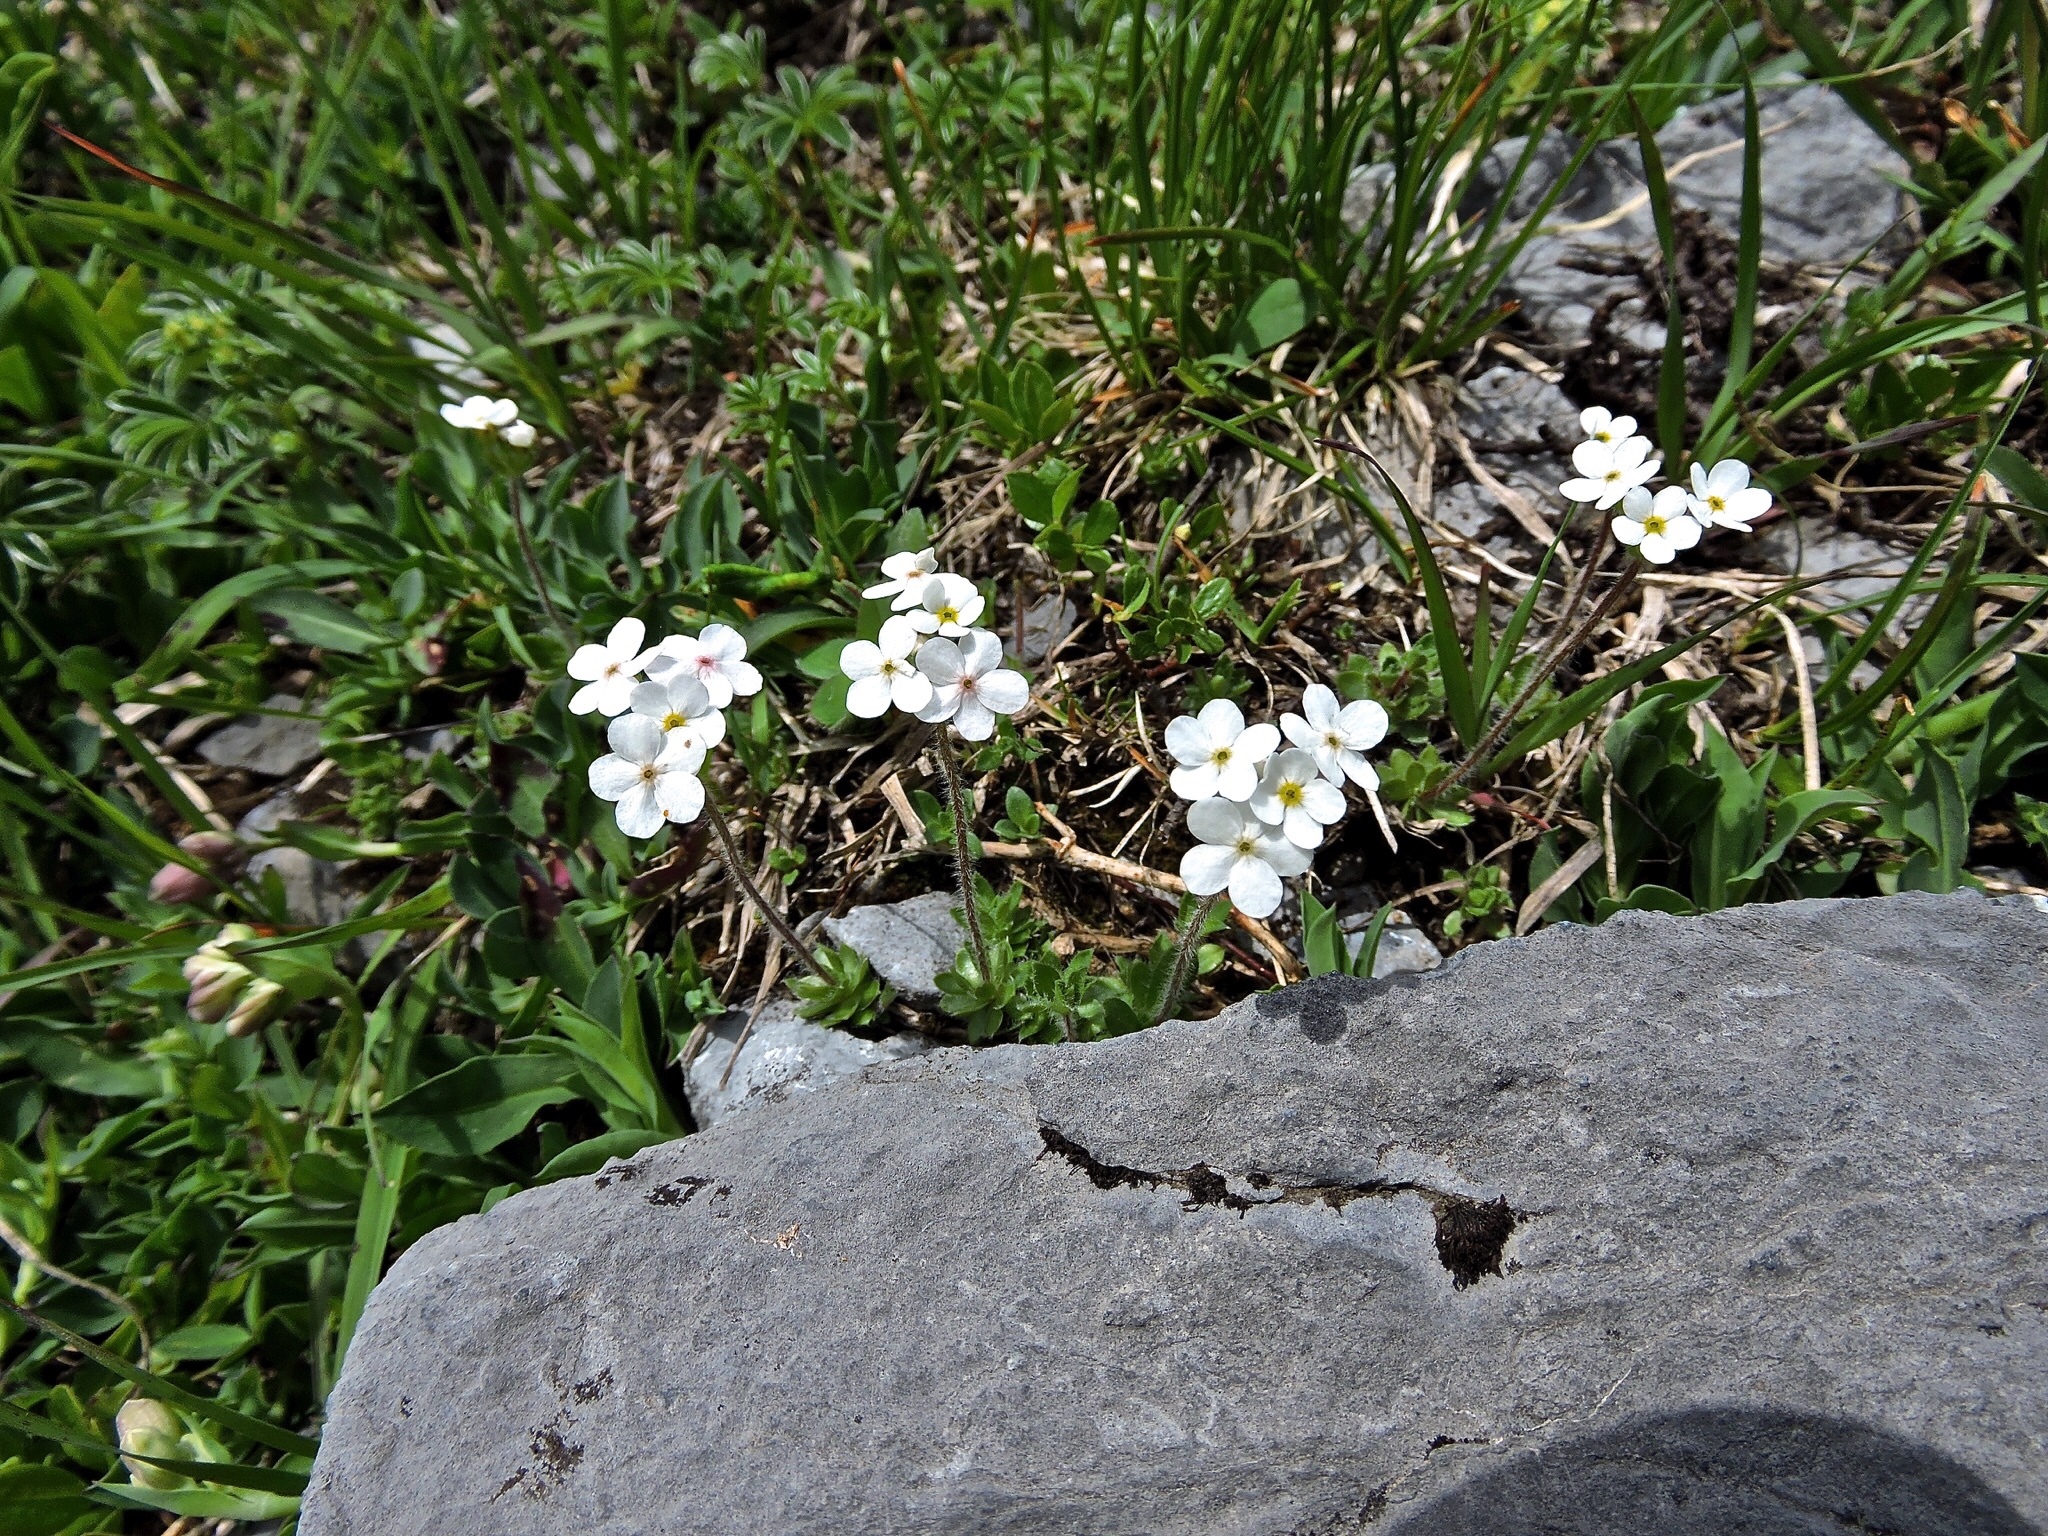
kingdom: Plantae
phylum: Tracheophyta
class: Magnoliopsida
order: Ericales
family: Primulaceae
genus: Androsace
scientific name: Androsace chamaejasme
